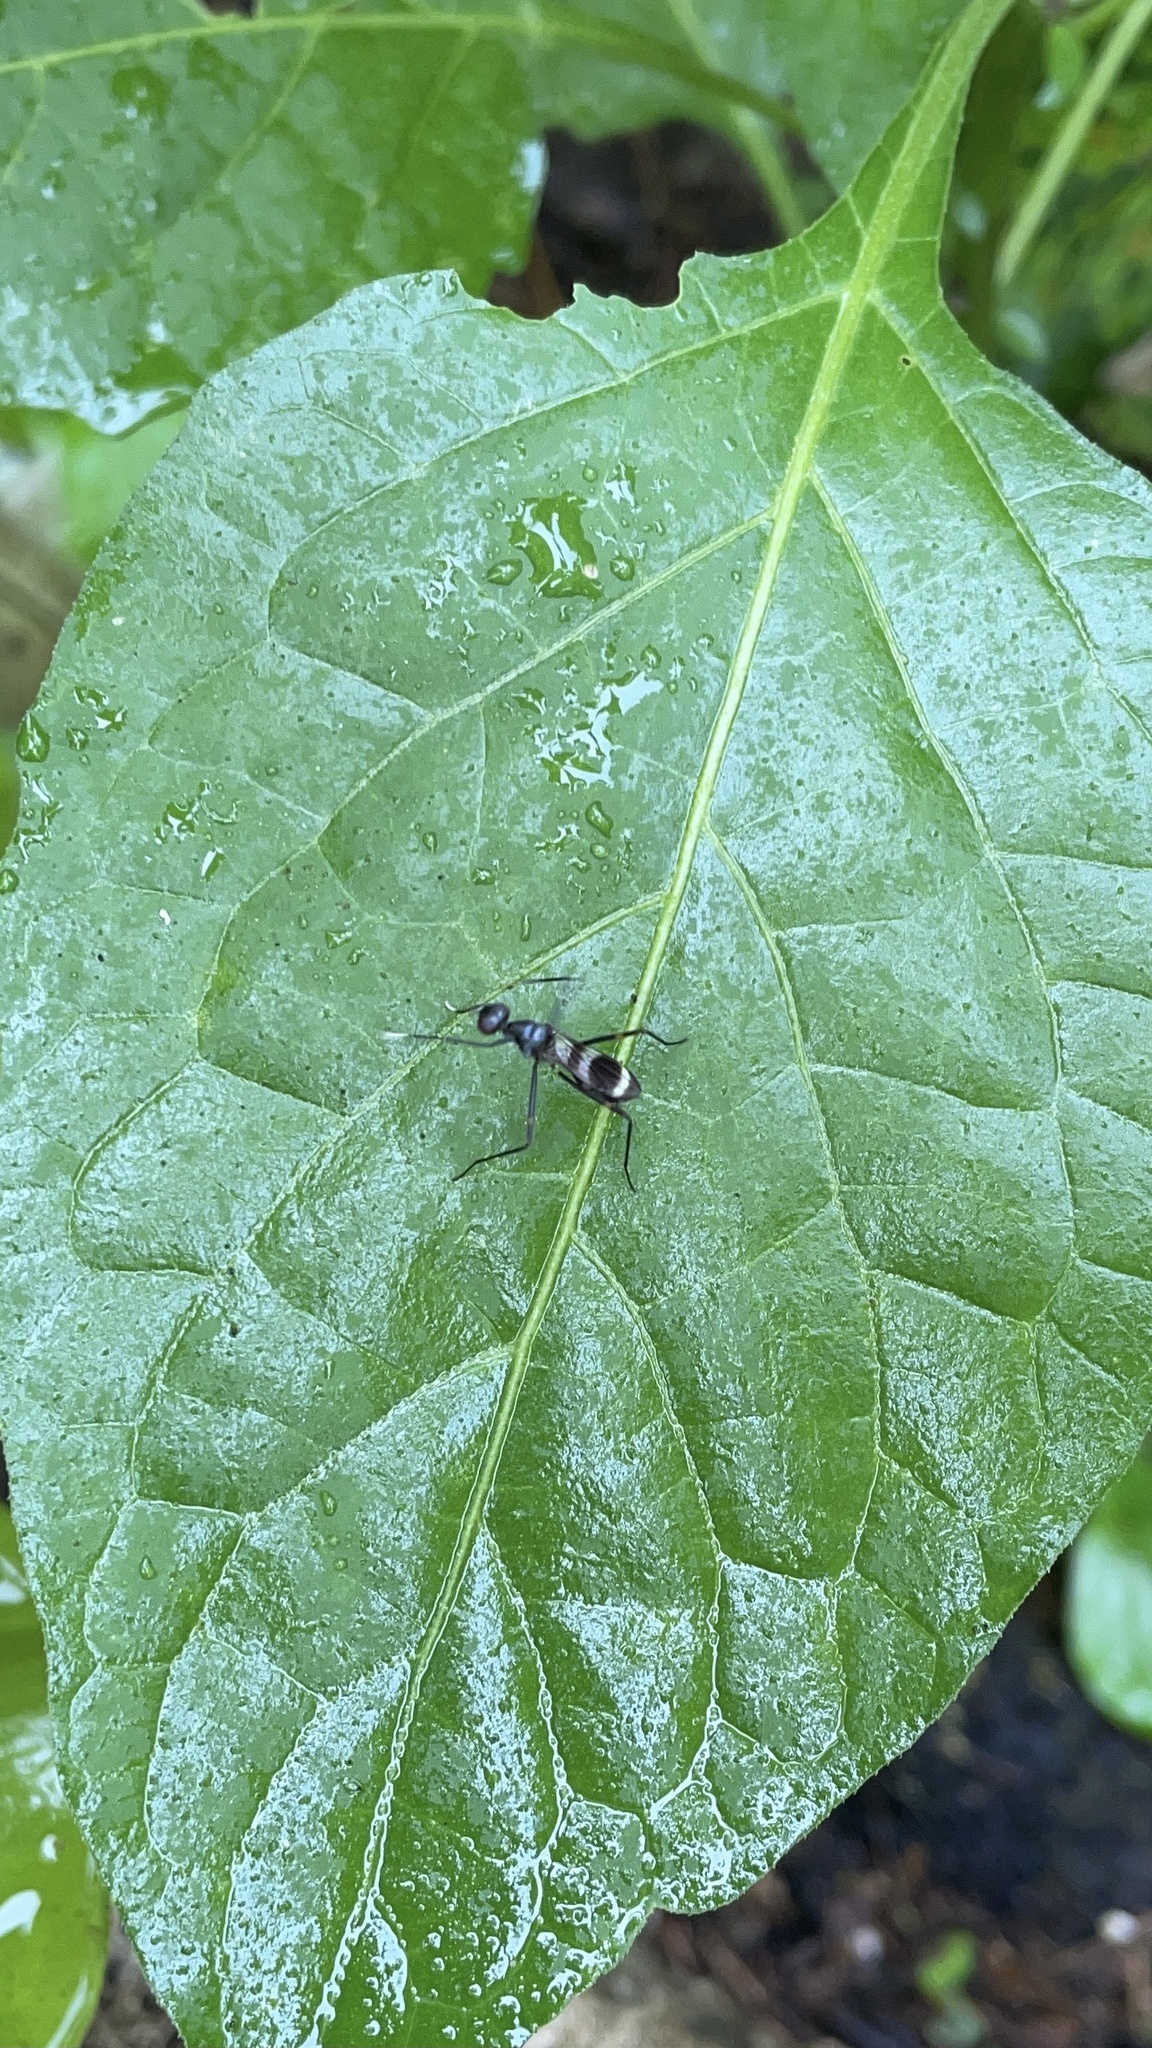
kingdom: Animalia
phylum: Arthropoda
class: Insecta
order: Diptera
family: Micropezidae
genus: Mimegralla
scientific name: Mimegralla australica
